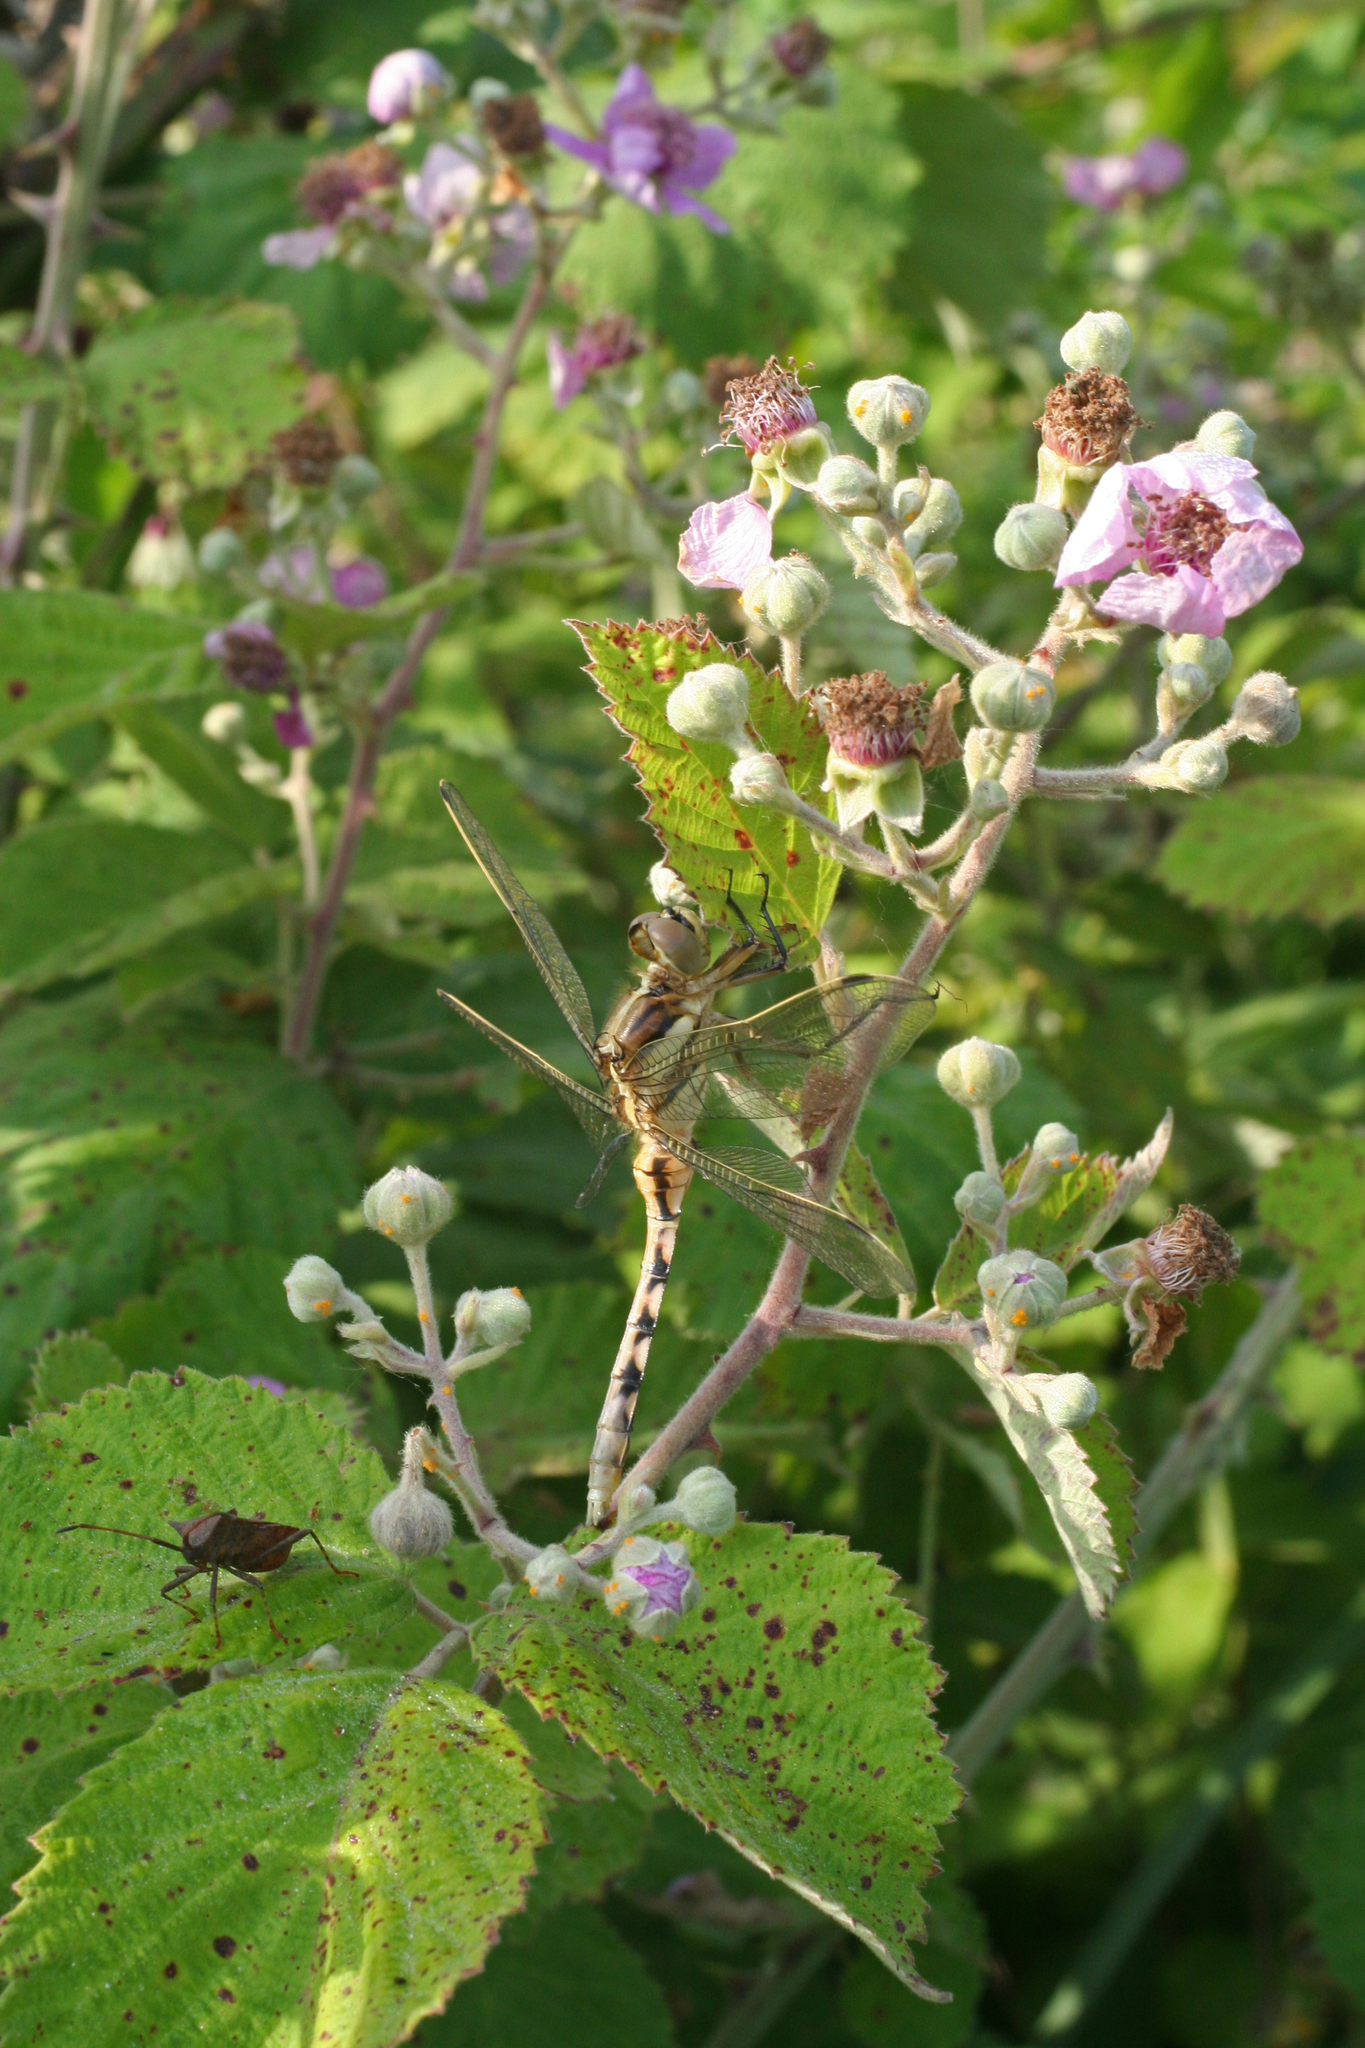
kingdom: Animalia
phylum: Arthropoda
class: Insecta
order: Odonata
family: Libellulidae
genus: Orthetrum
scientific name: Orthetrum albistylum
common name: White-tailed skimmer
